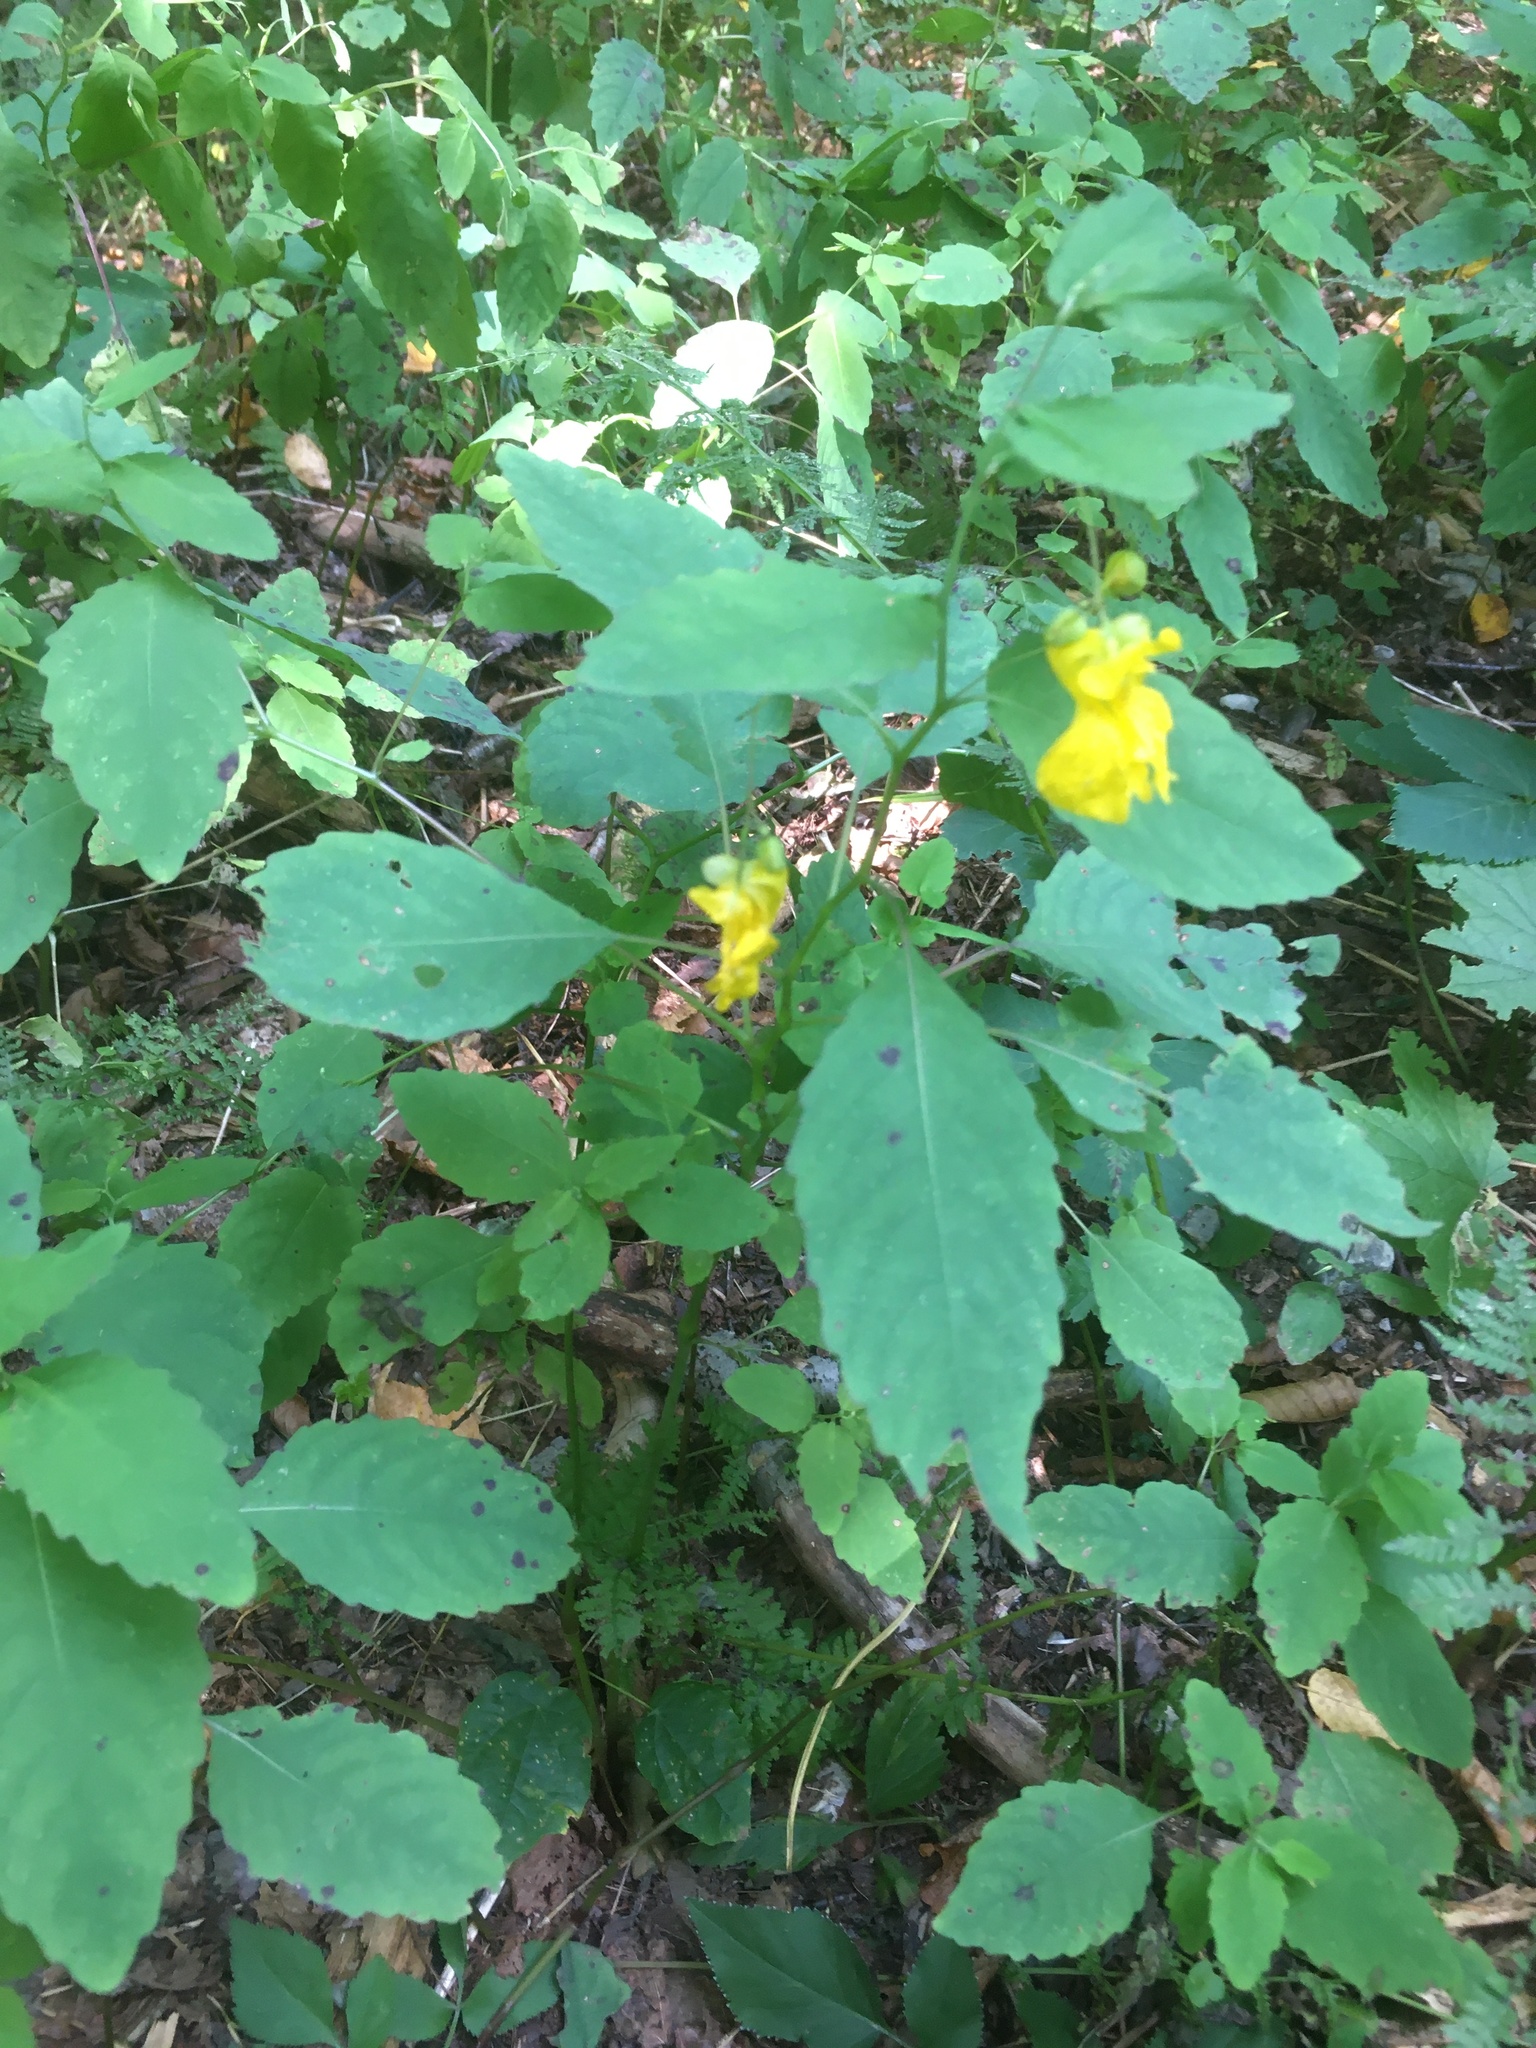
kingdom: Plantae
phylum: Tracheophyta
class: Magnoliopsida
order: Ericales
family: Balsaminaceae
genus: Impatiens
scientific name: Impatiens pallida
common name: Pale snapweed
